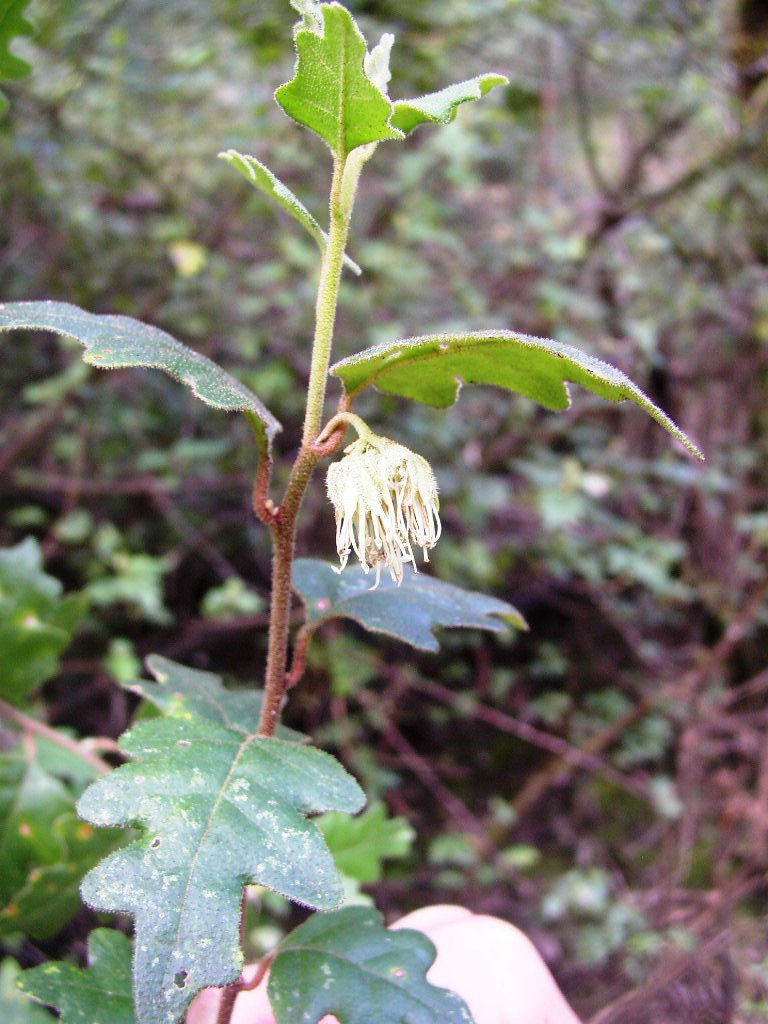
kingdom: Plantae
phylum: Tracheophyta
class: Magnoliopsida
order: Sapindales
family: Rutaceae
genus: Chorilaena
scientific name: Chorilaena quercifolia
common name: Wild hop
